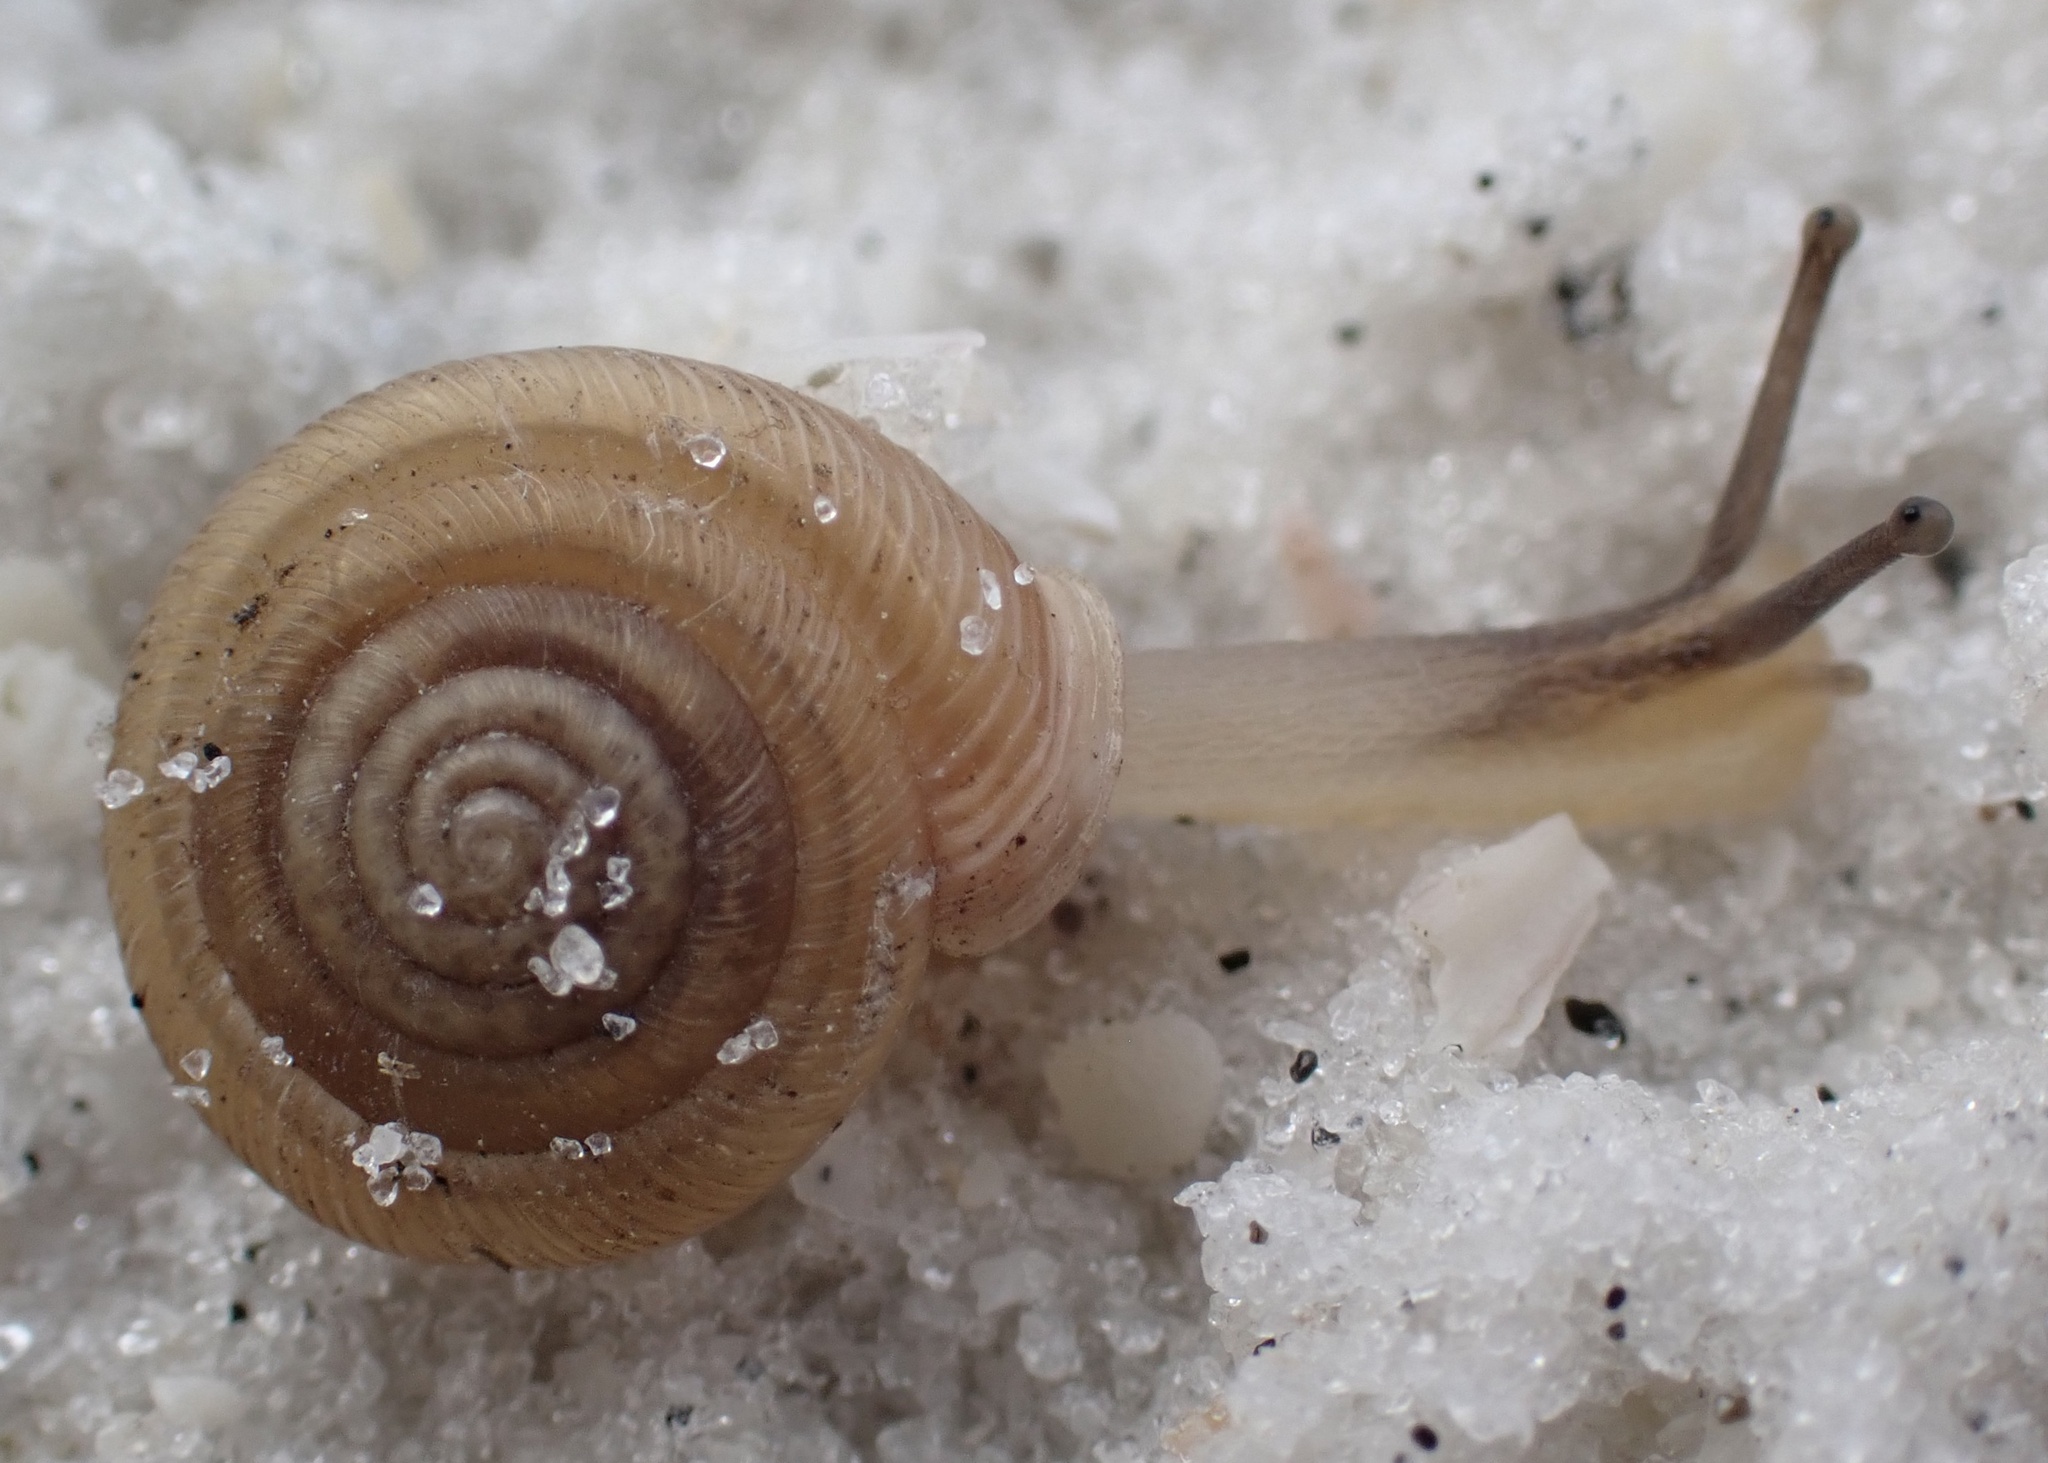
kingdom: Animalia
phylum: Mollusca
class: Gastropoda
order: Stylommatophora
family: Polygyridae
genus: Polygyra
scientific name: Polygyra cereolus
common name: Southern flatcone snail
